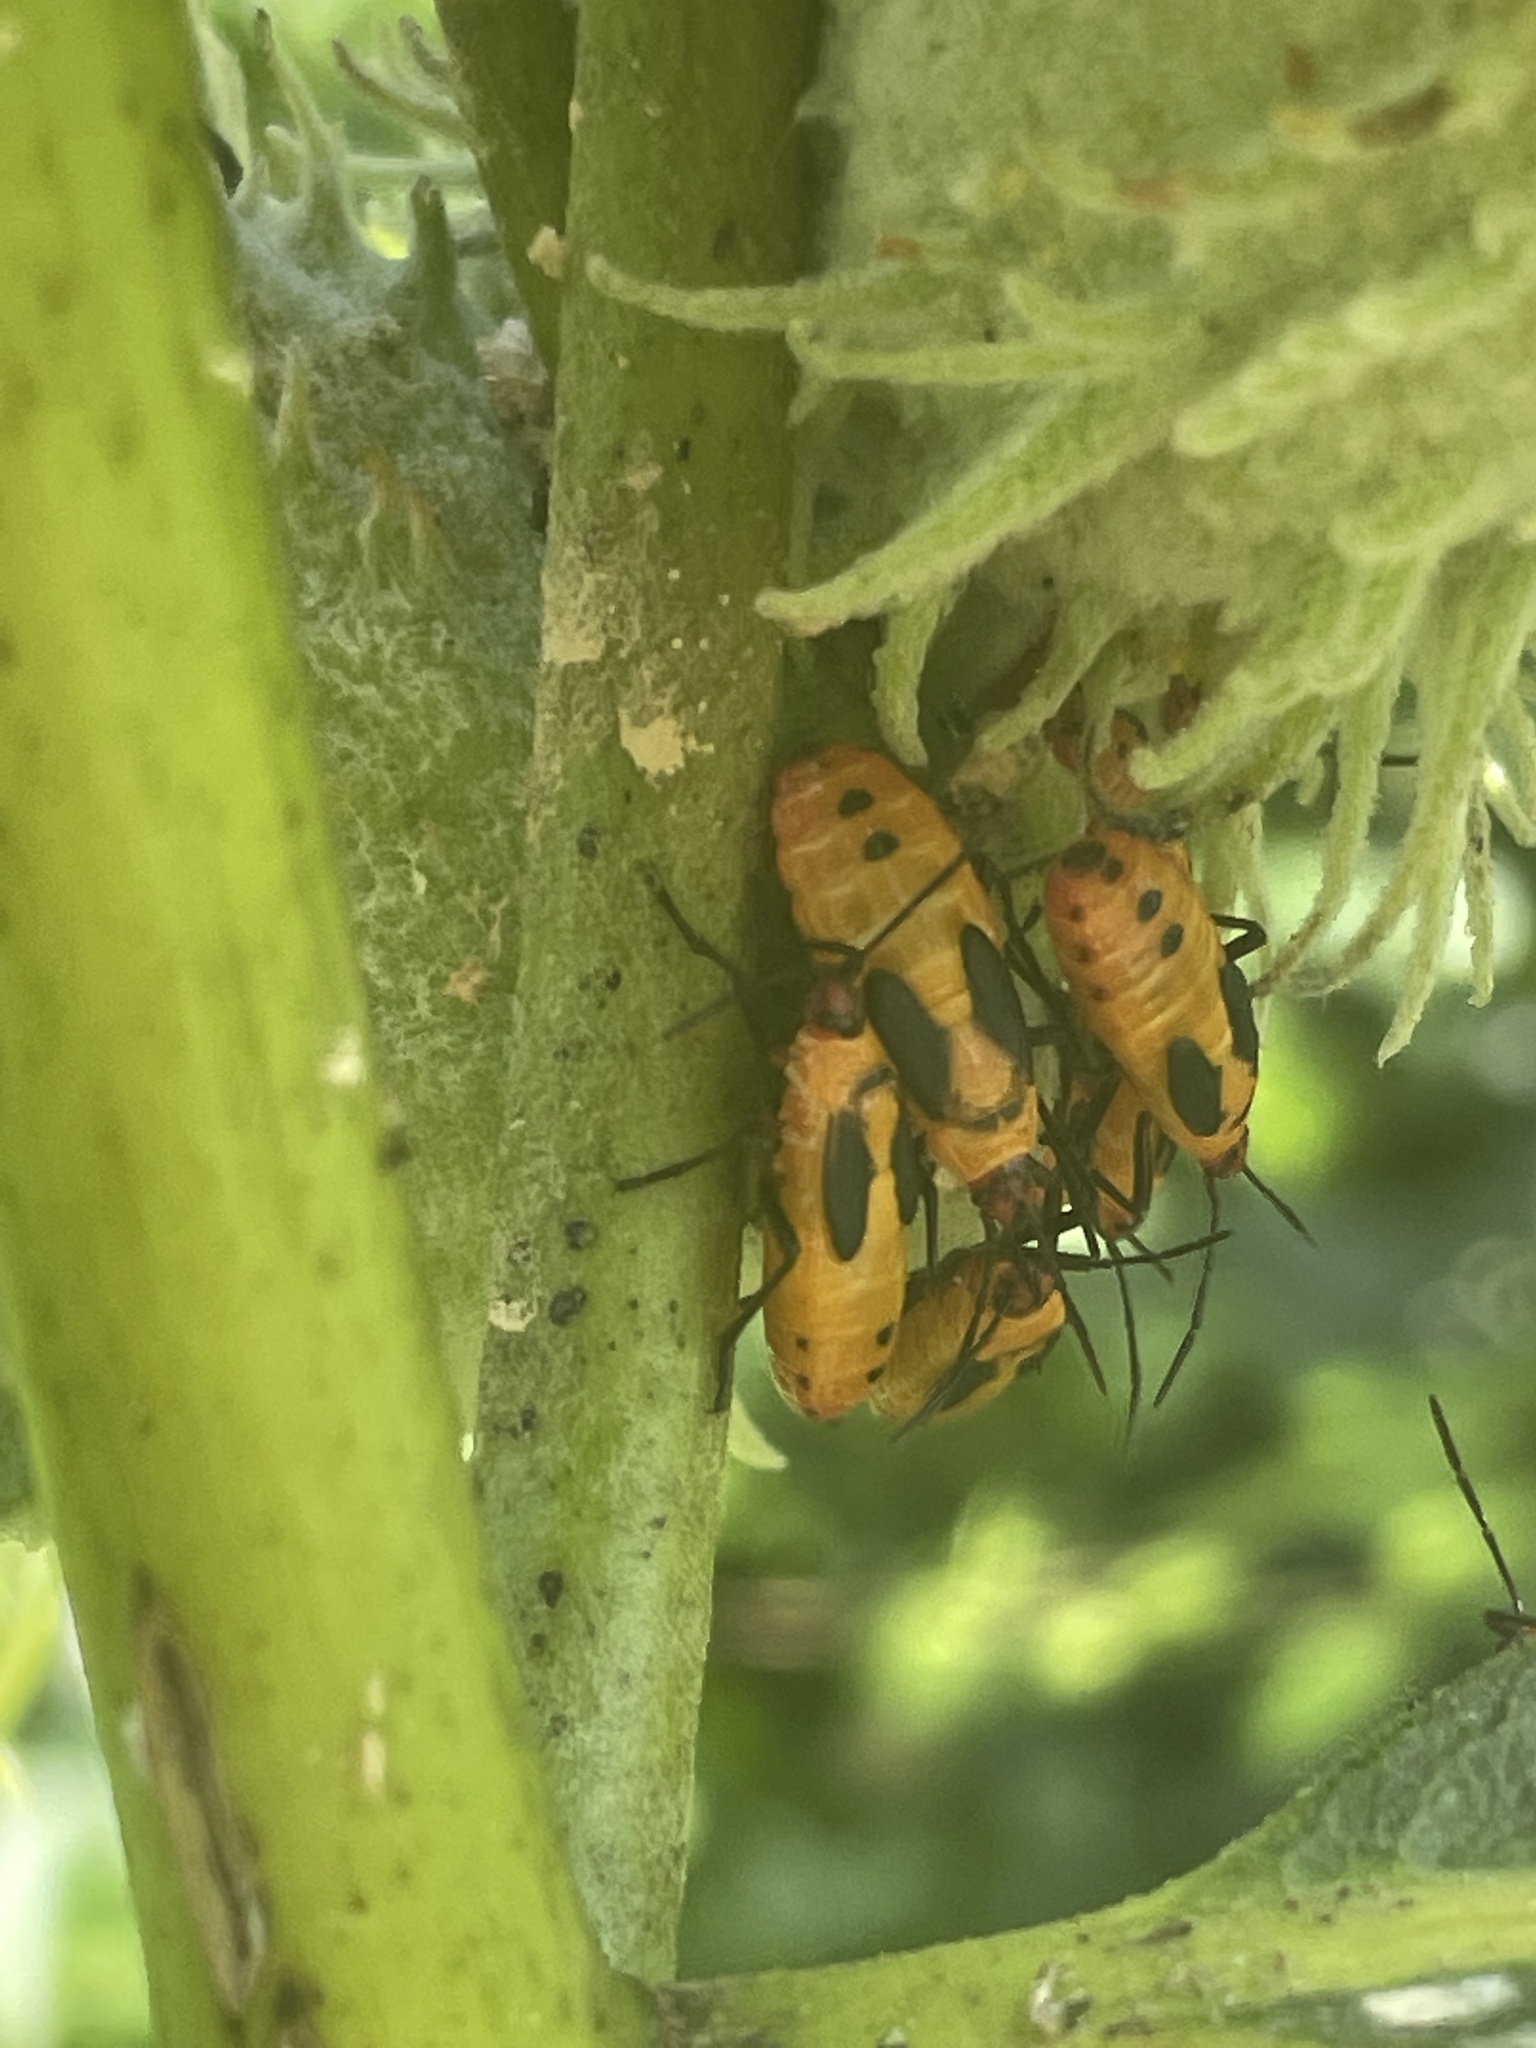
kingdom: Animalia
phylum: Arthropoda
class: Insecta
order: Hemiptera
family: Lygaeidae
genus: Oncopeltus
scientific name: Oncopeltus fasciatus
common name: Large milkweed bug
